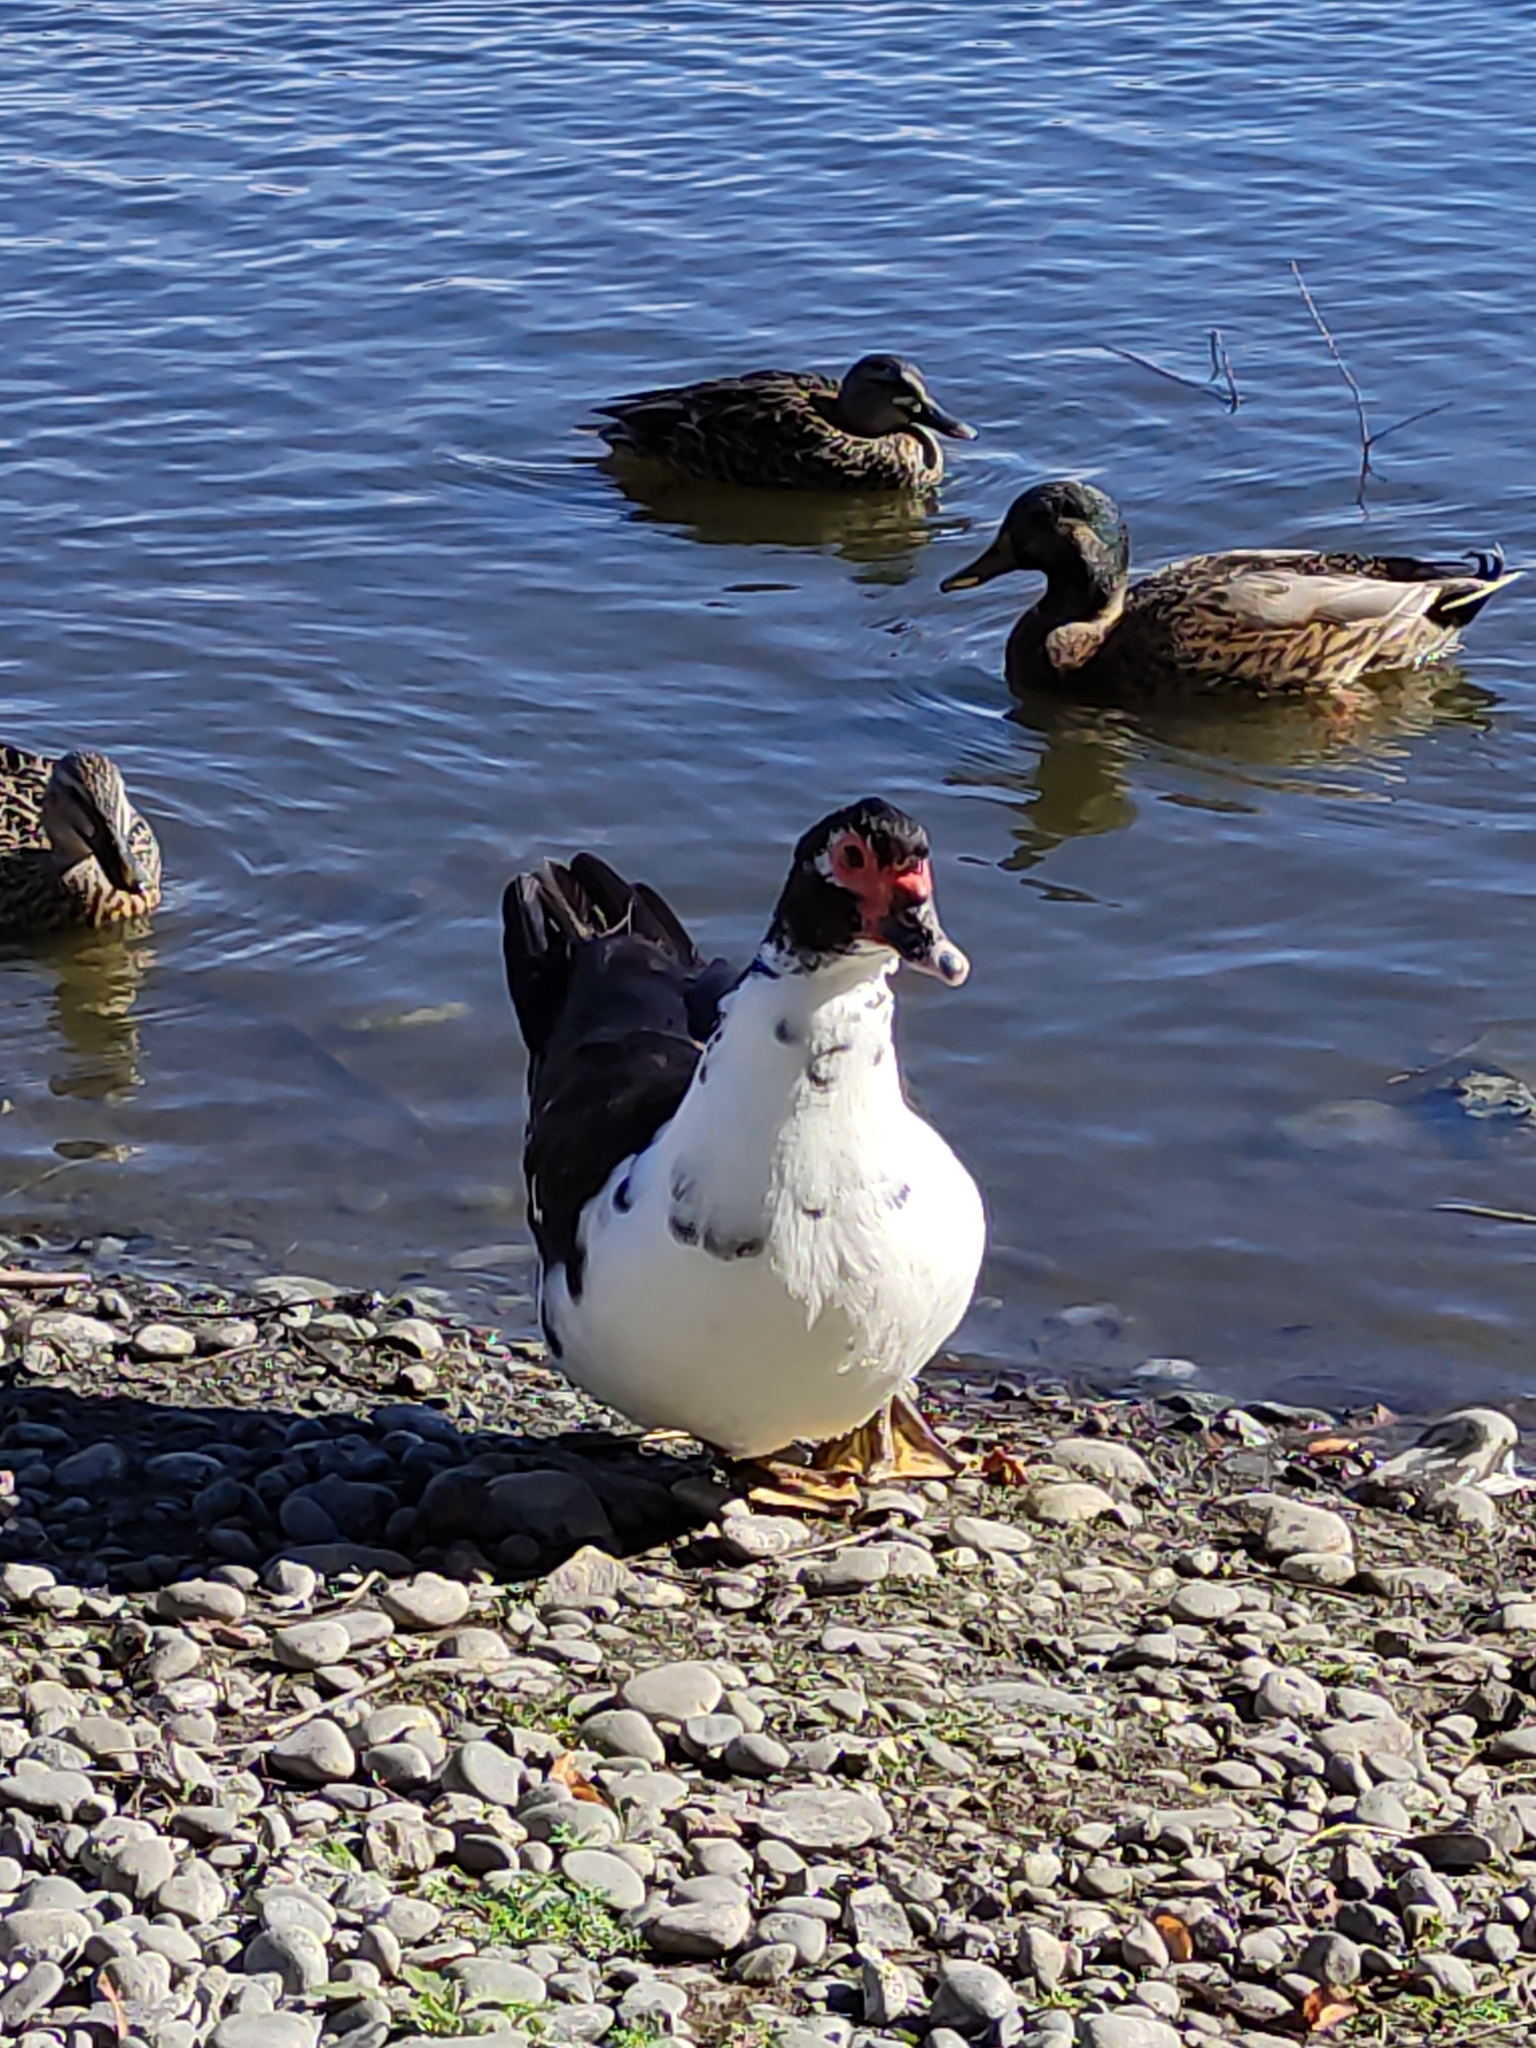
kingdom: Animalia
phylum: Chordata
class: Aves
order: Anseriformes
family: Anatidae
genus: Cairina
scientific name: Cairina moschata
